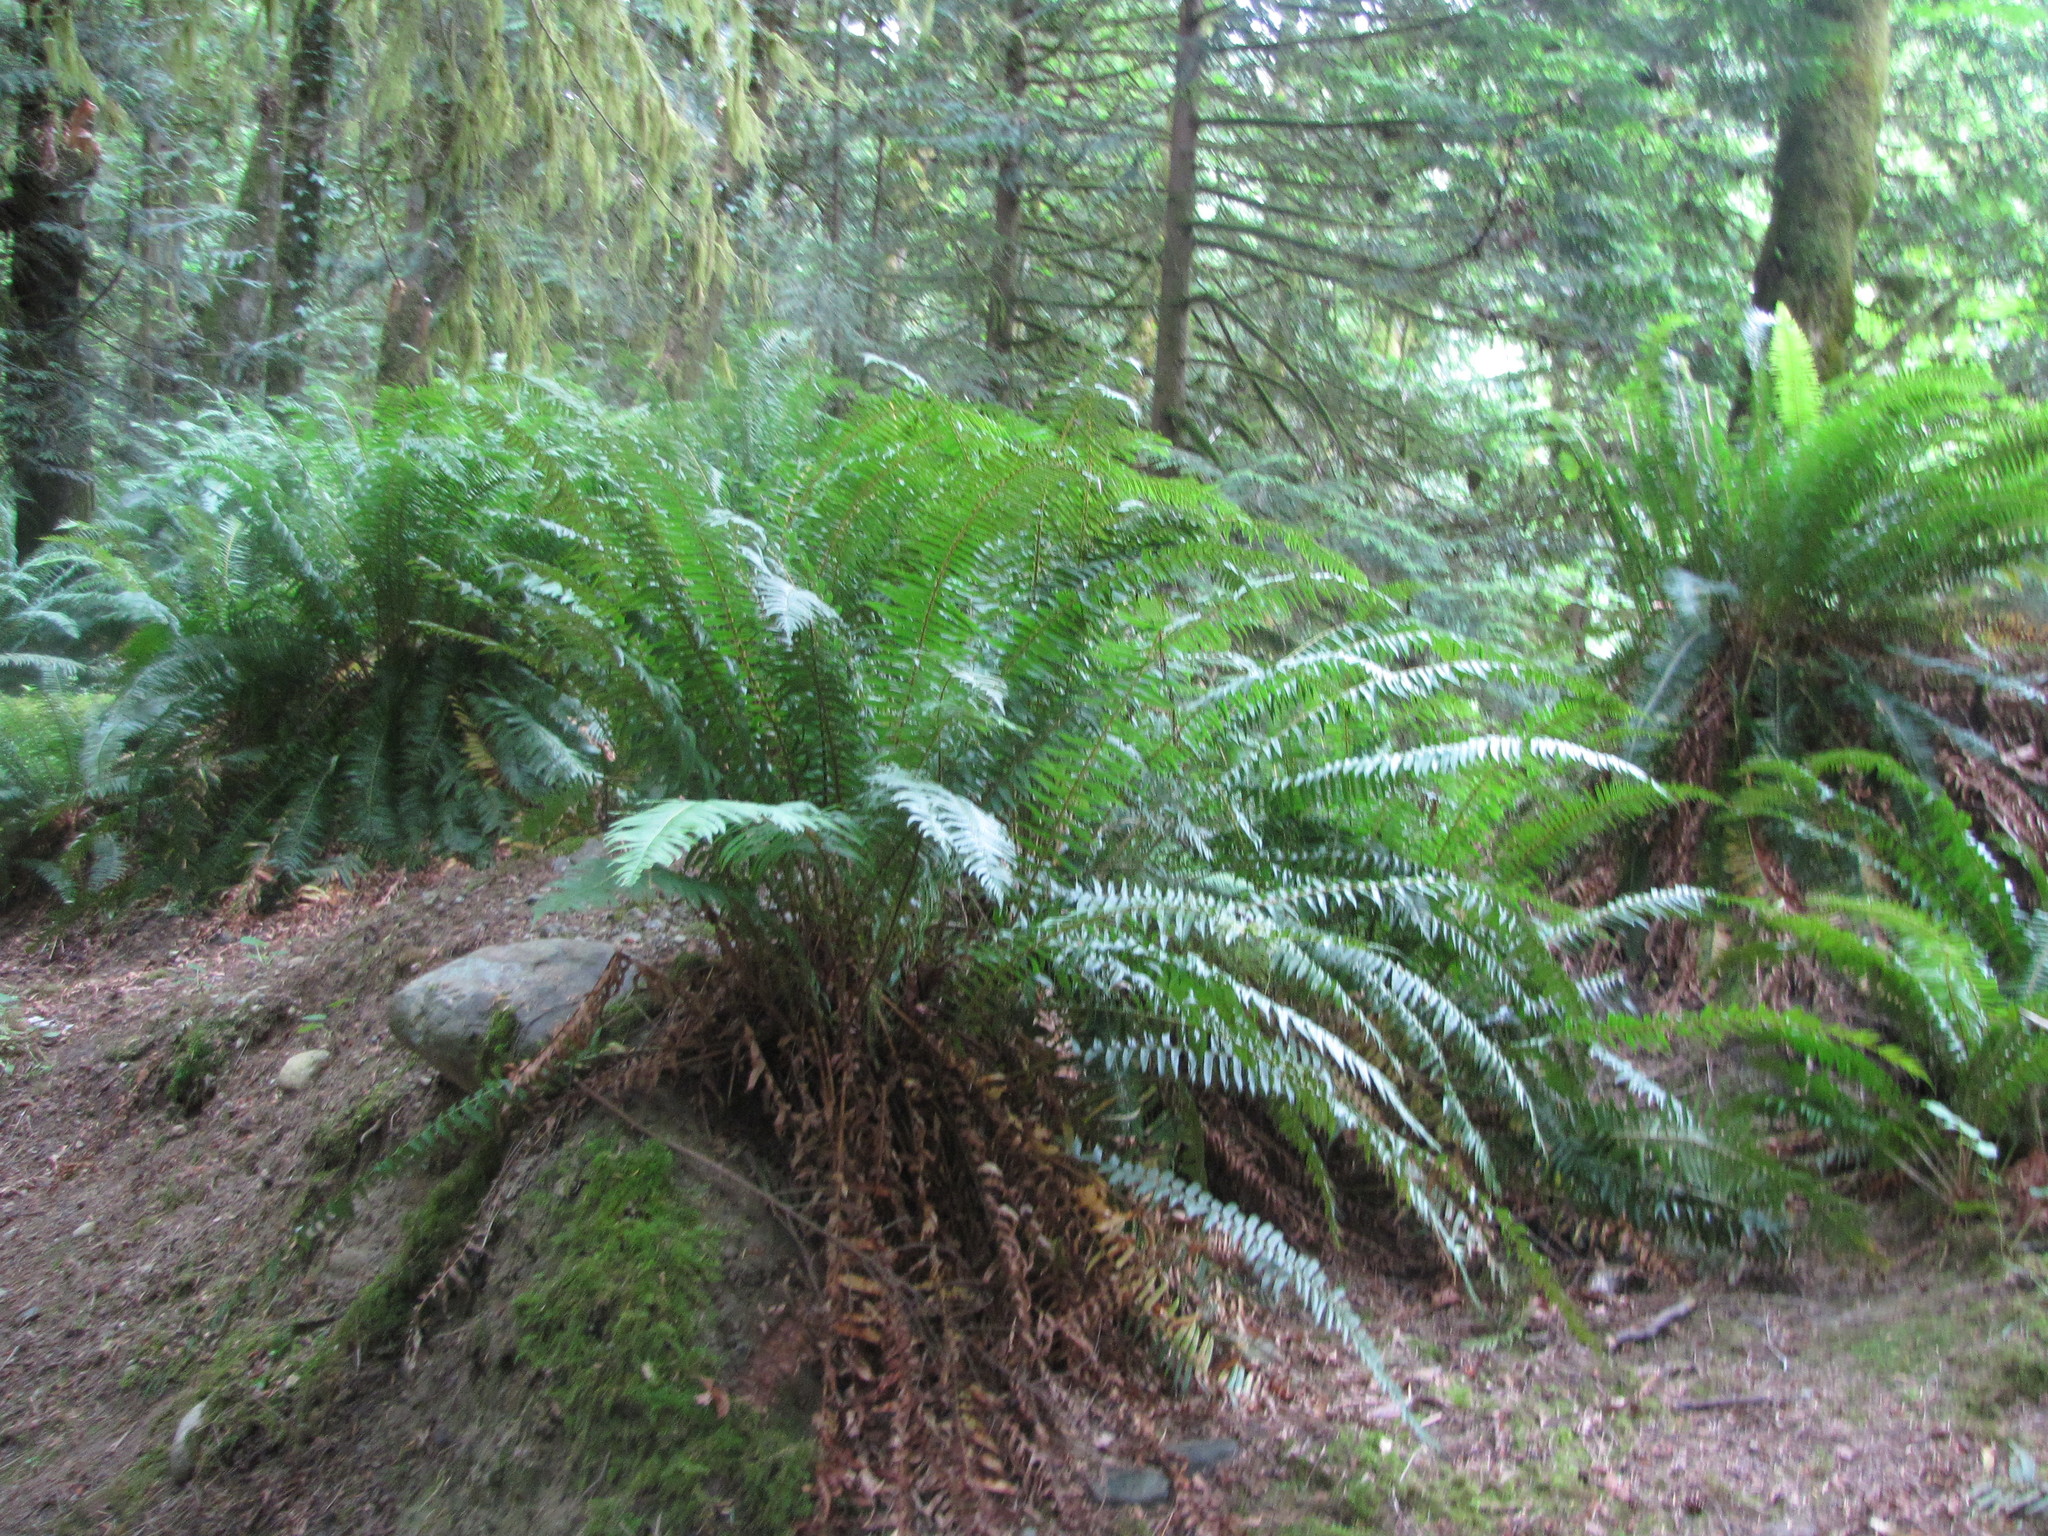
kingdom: Plantae
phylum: Tracheophyta
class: Polypodiopsida
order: Polypodiales
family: Dryopteridaceae
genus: Polystichum
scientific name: Polystichum munitum
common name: Western sword-fern
